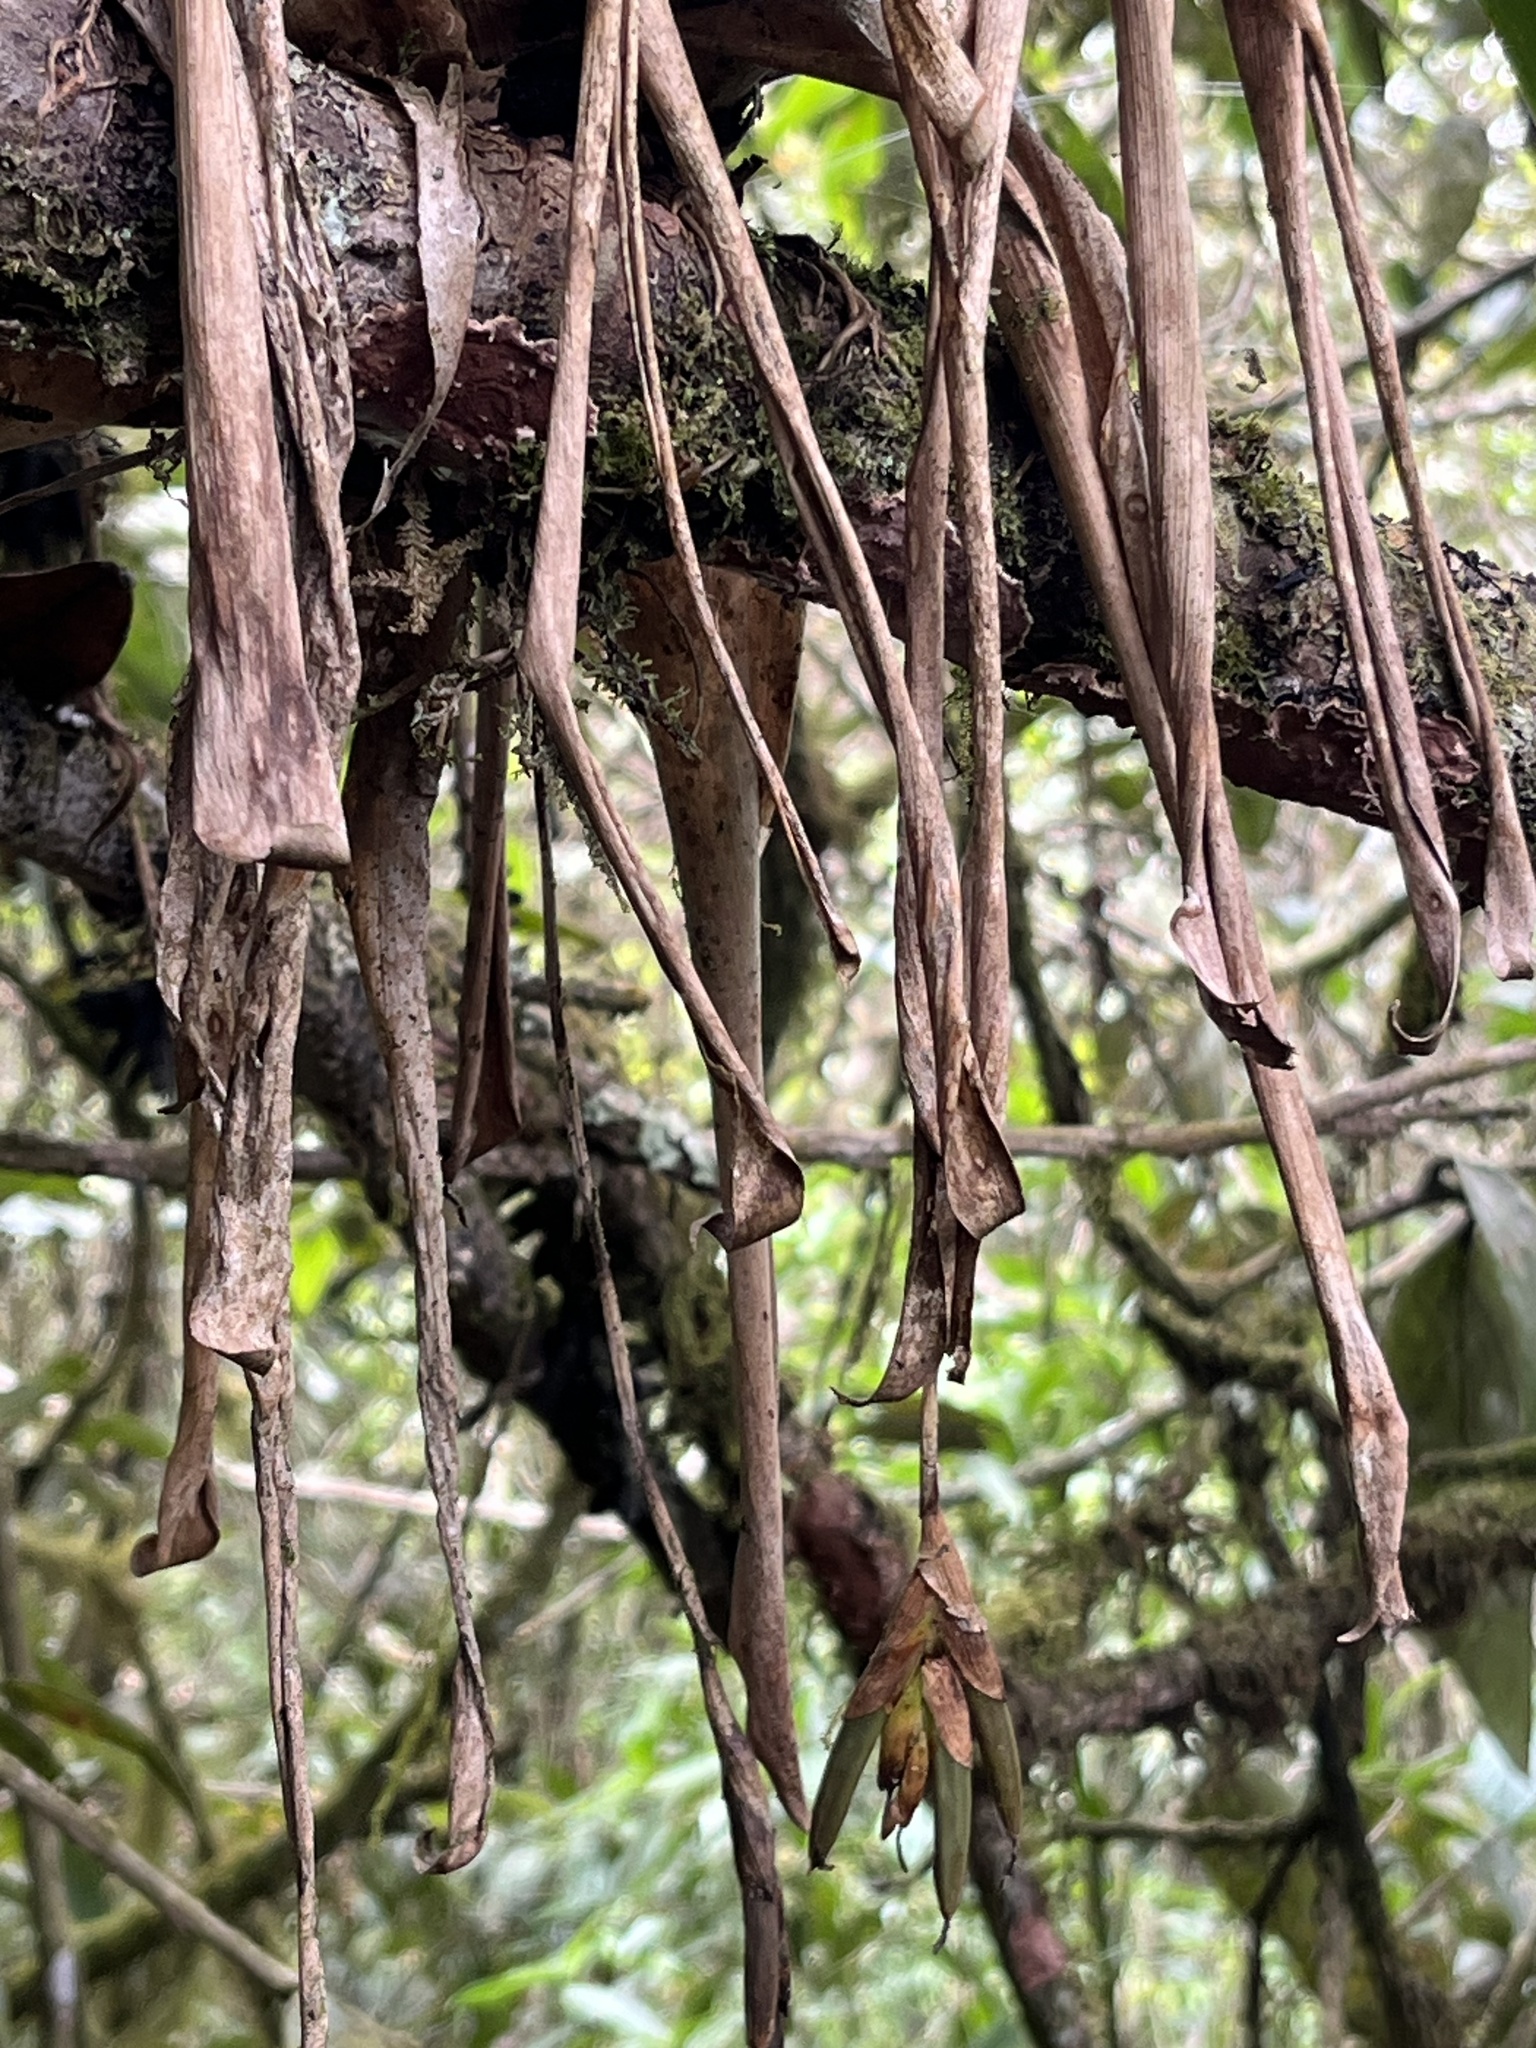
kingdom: Plantae
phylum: Tracheophyta
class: Liliopsida
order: Poales
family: Bromeliaceae
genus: Tillandsia
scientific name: Tillandsia complanata
